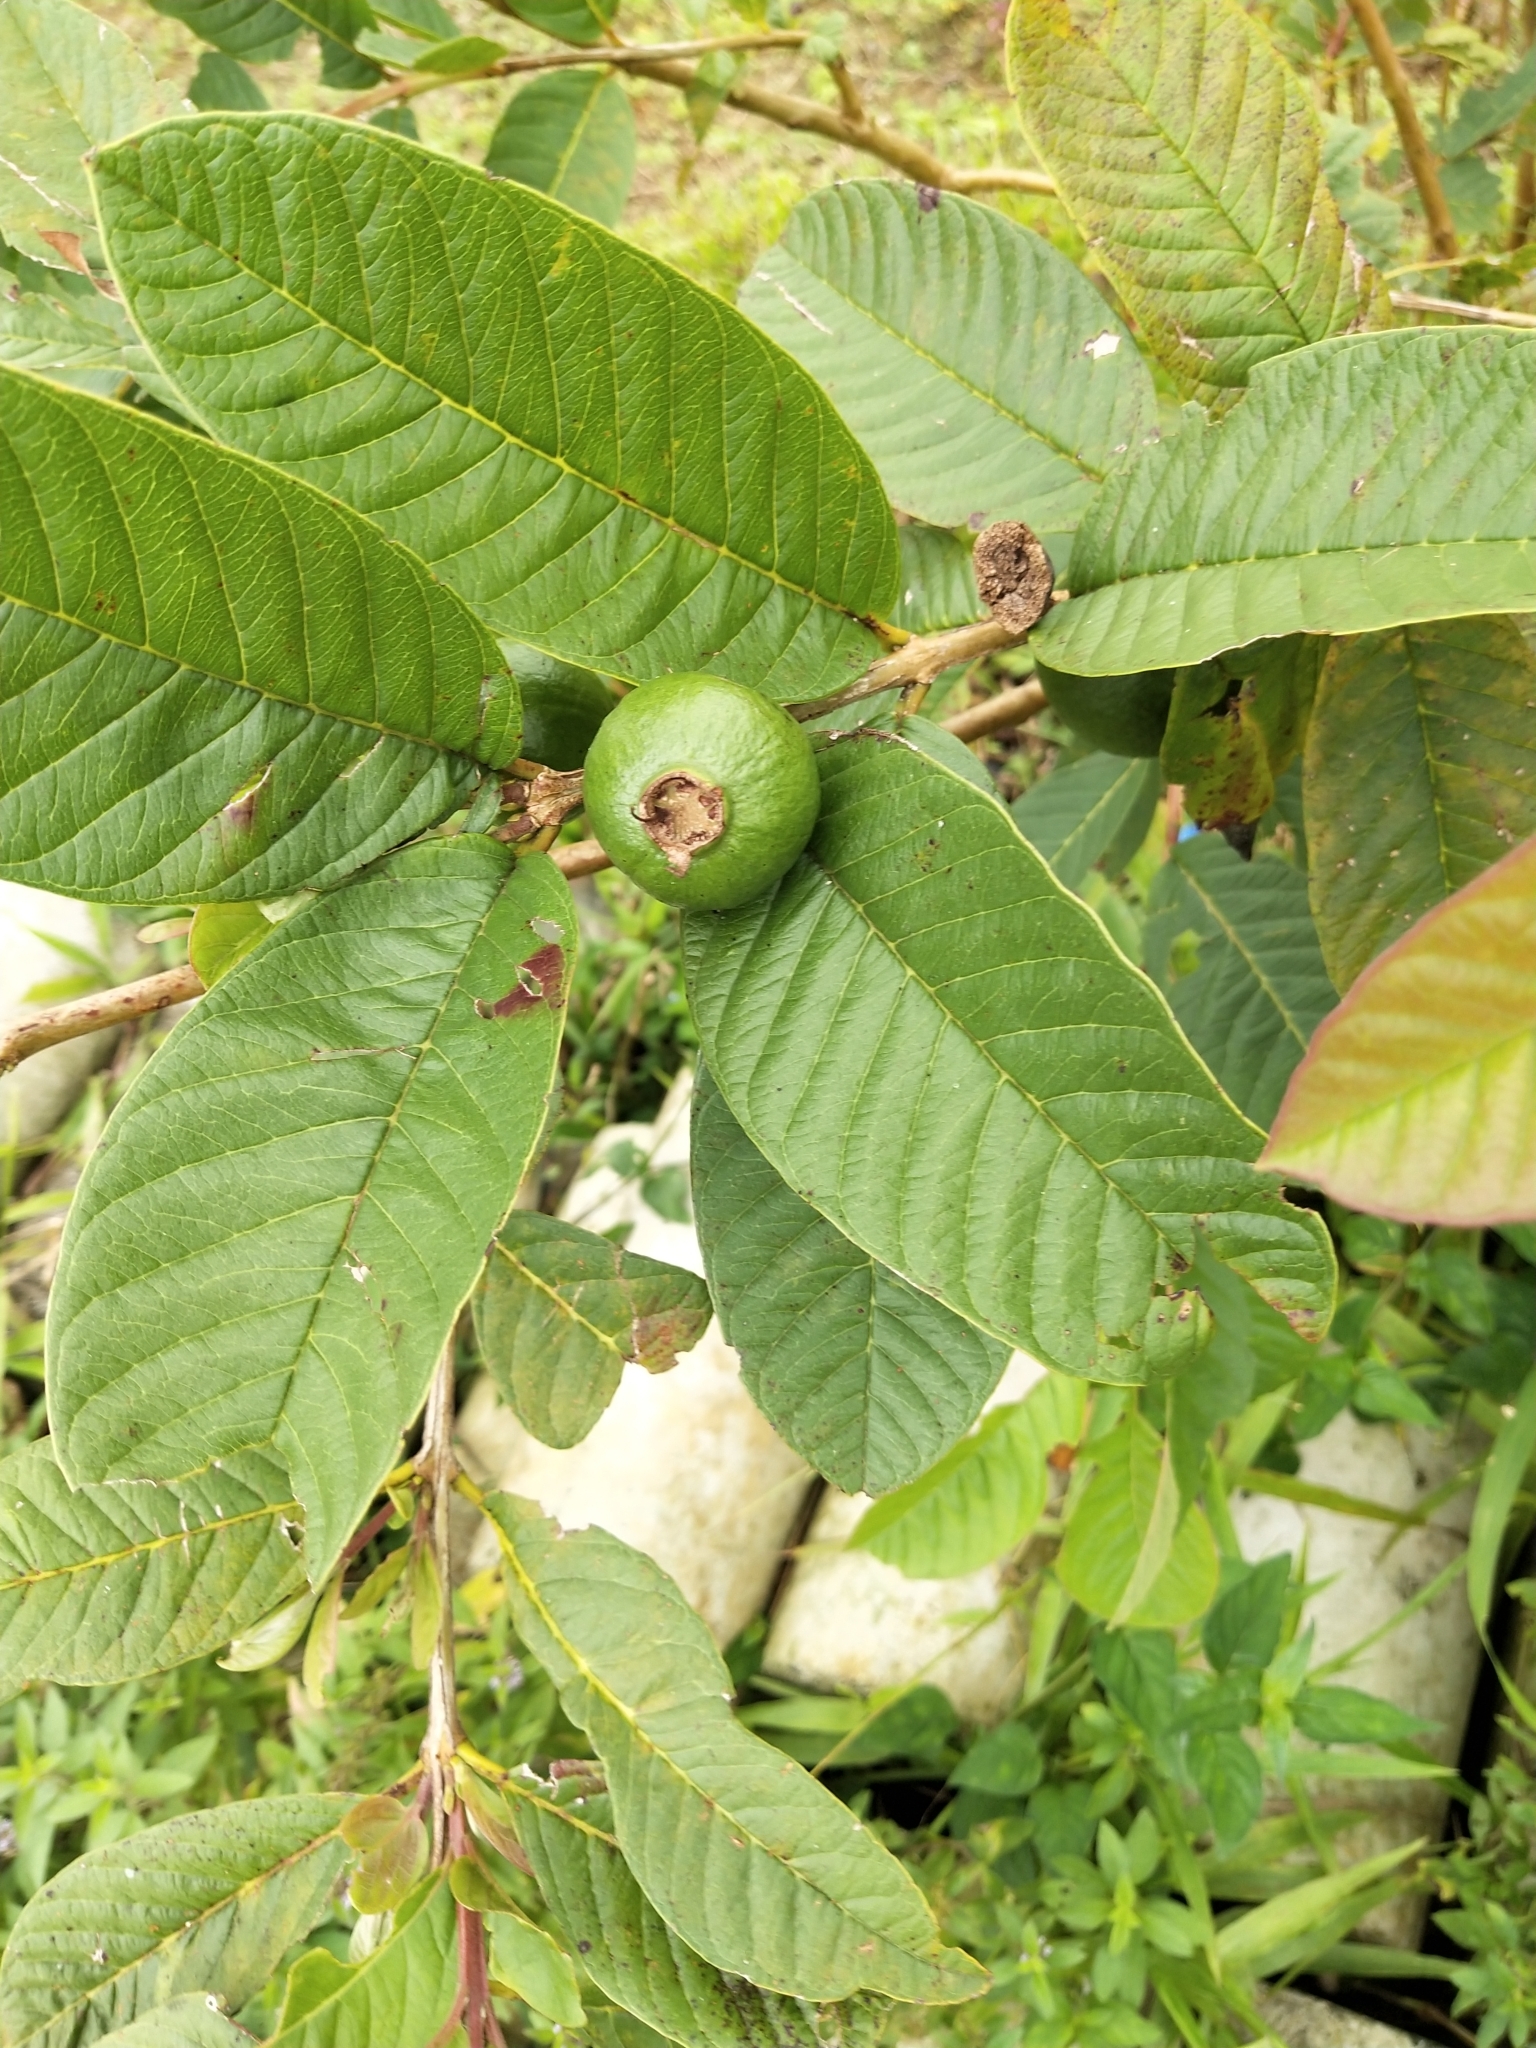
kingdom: Plantae
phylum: Tracheophyta
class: Magnoliopsida
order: Myrtales
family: Myrtaceae
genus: Psidium
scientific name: Psidium guajava
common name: Guava
